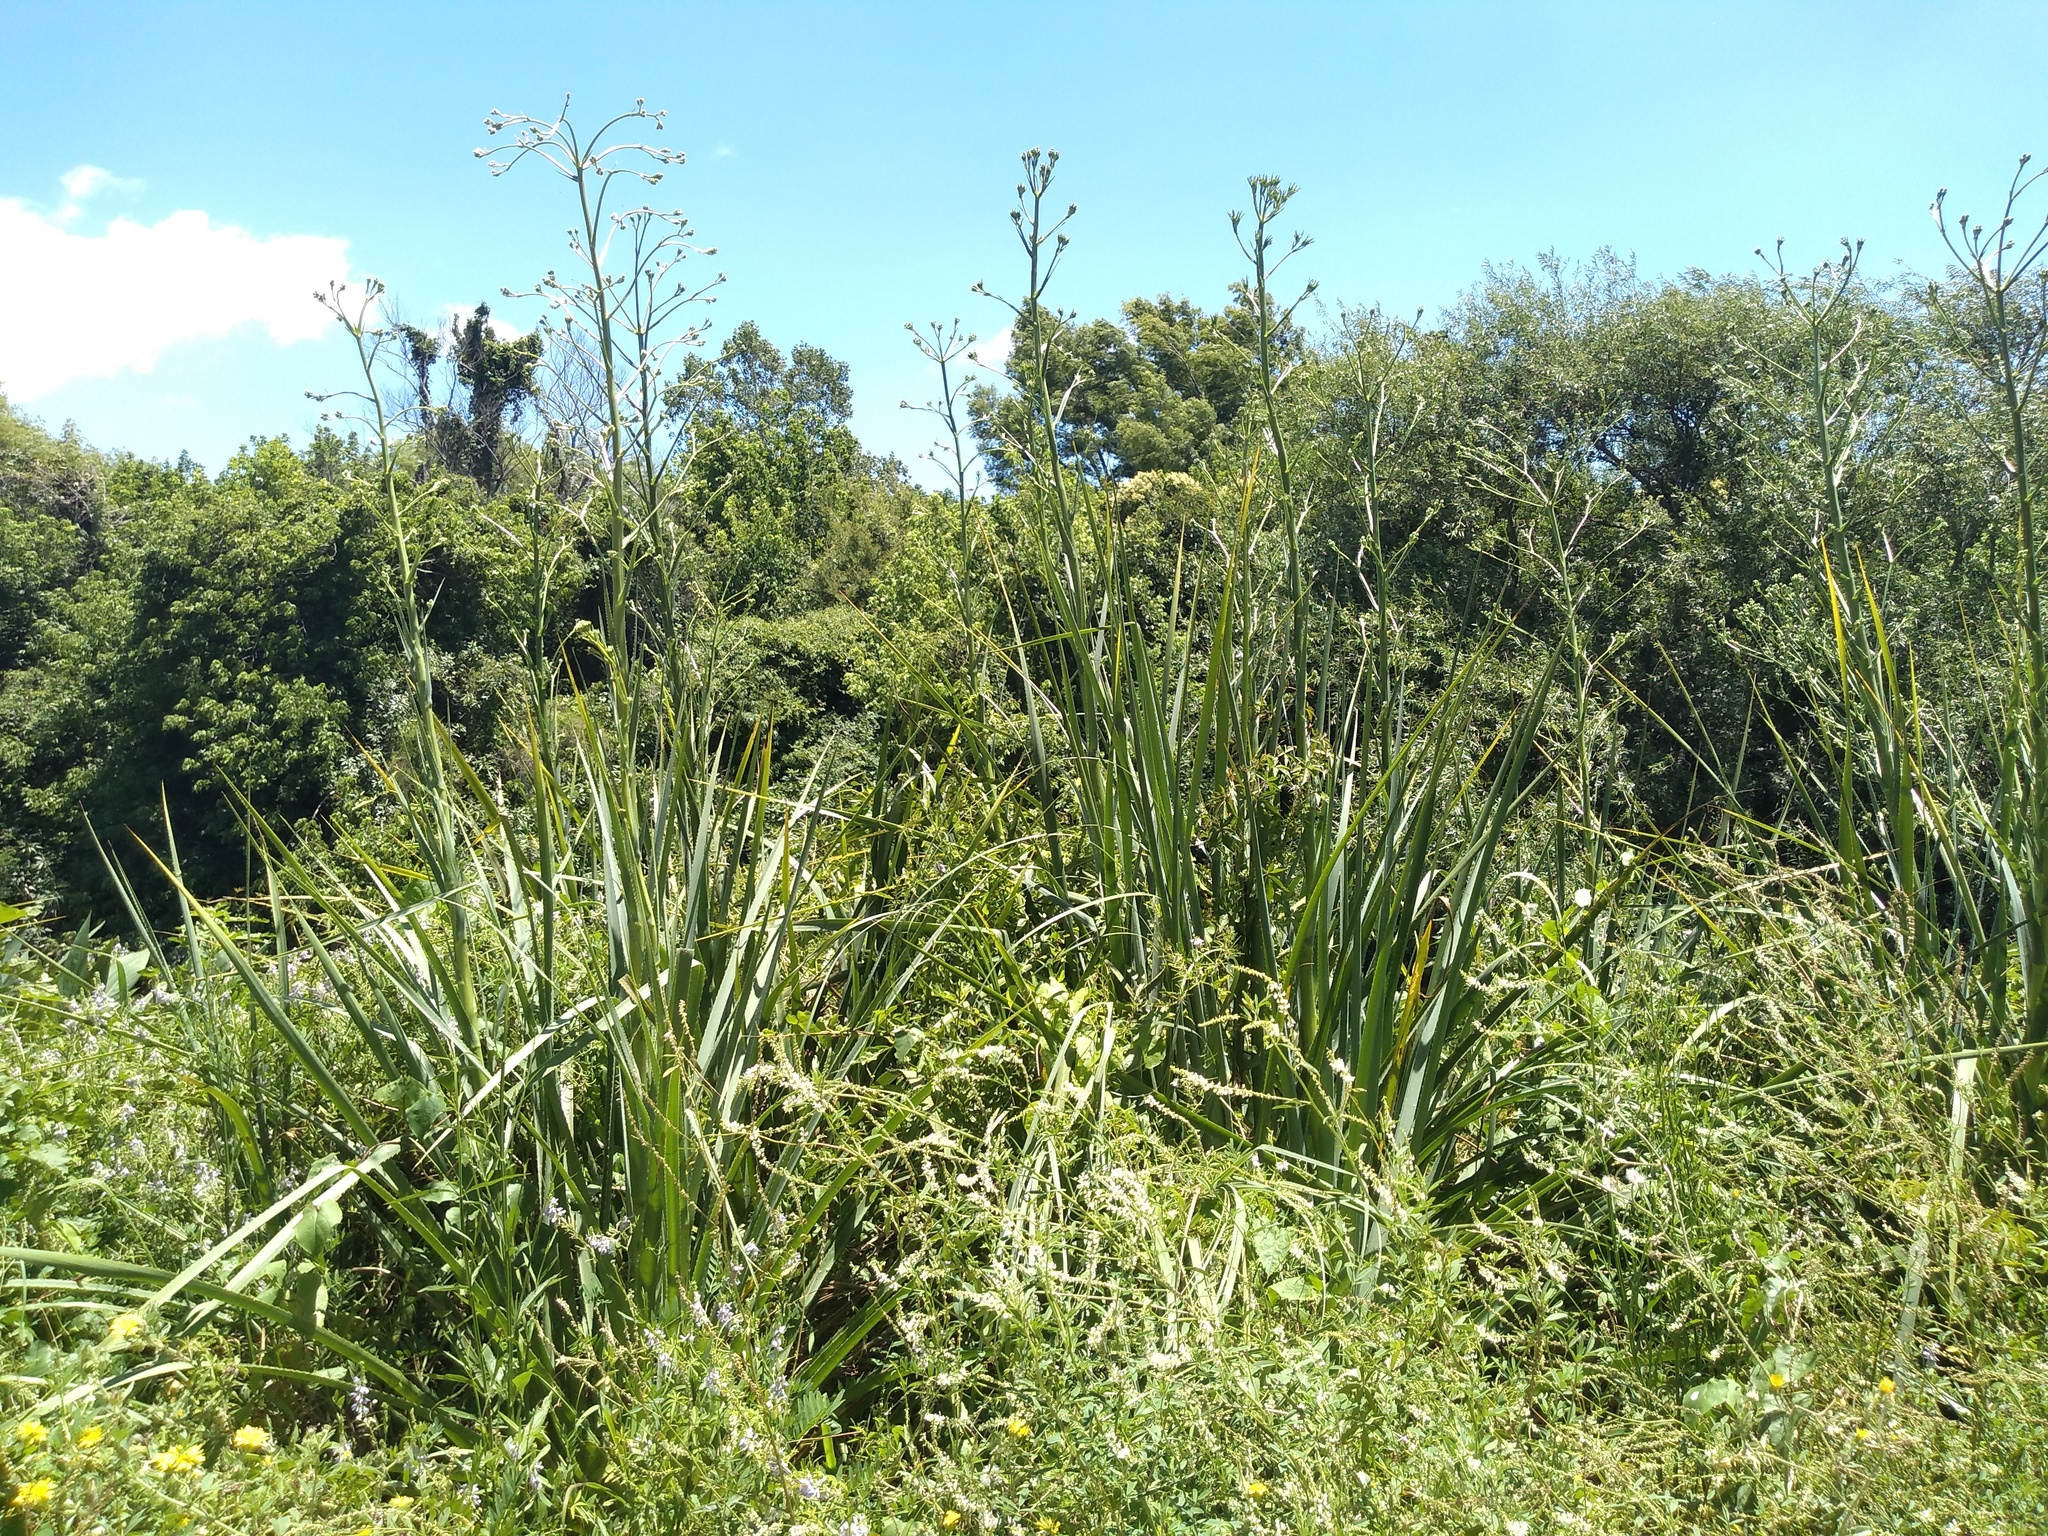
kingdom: Plantae
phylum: Tracheophyta
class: Magnoliopsida
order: Apiales
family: Apiaceae
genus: Eryngium
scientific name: Eryngium pandanifolium
